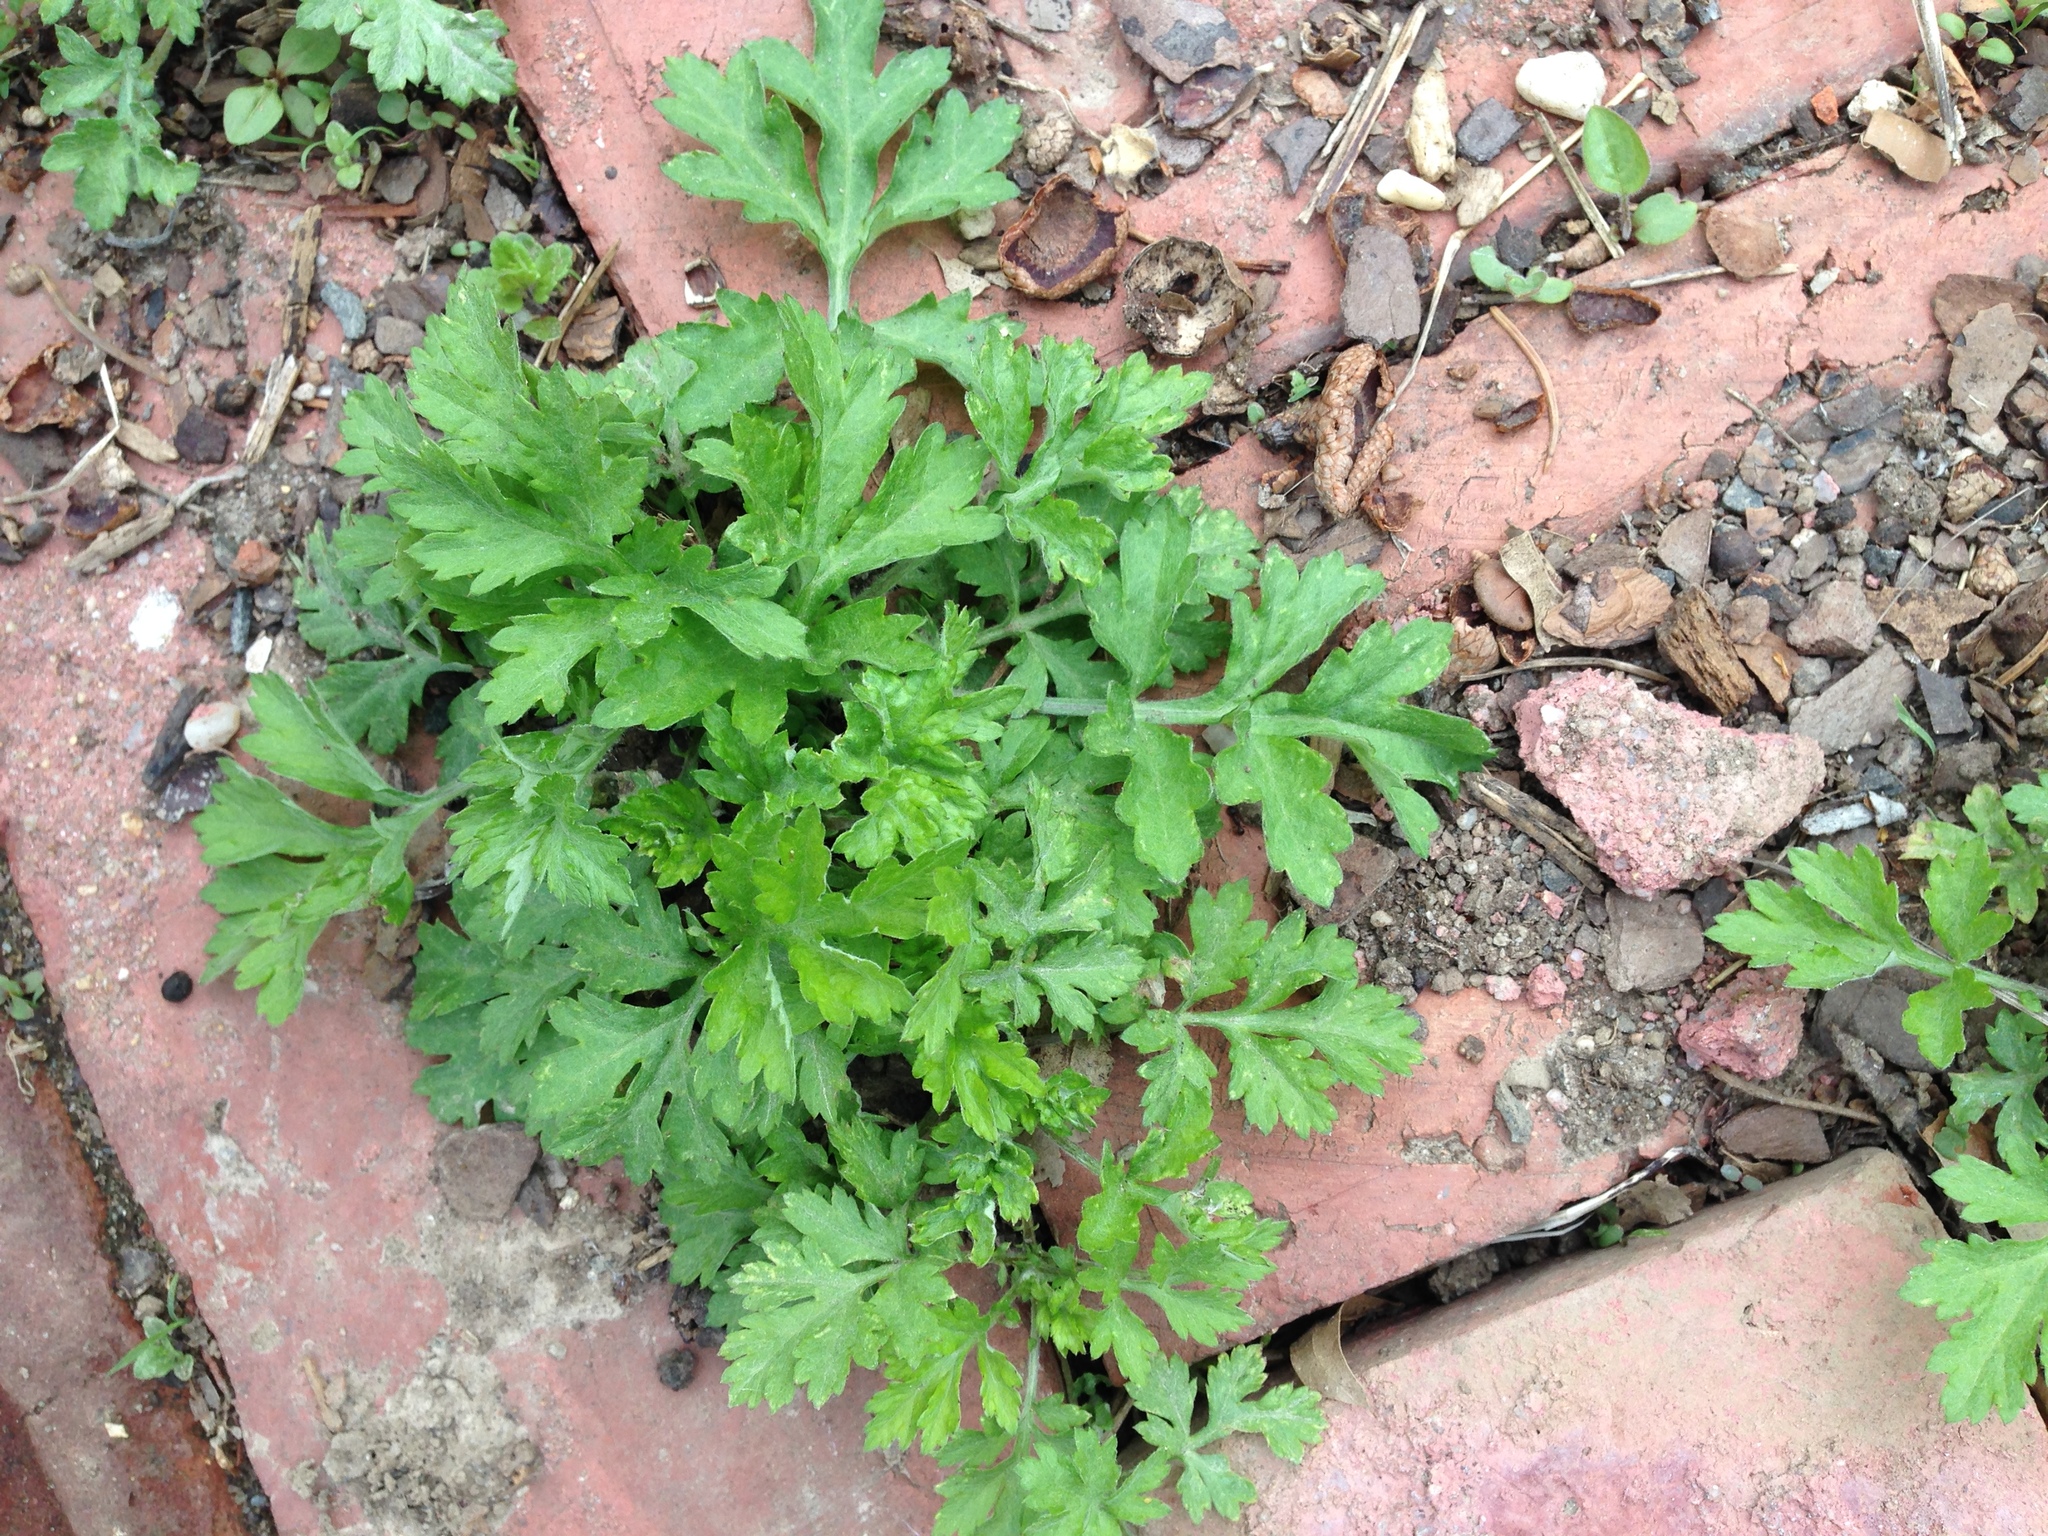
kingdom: Plantae
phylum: Tracheophyta
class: Magnoliopsida
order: Asterales
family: Asteraceae
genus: Artemisia
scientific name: Artemisia vulgaris
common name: Mugwort
